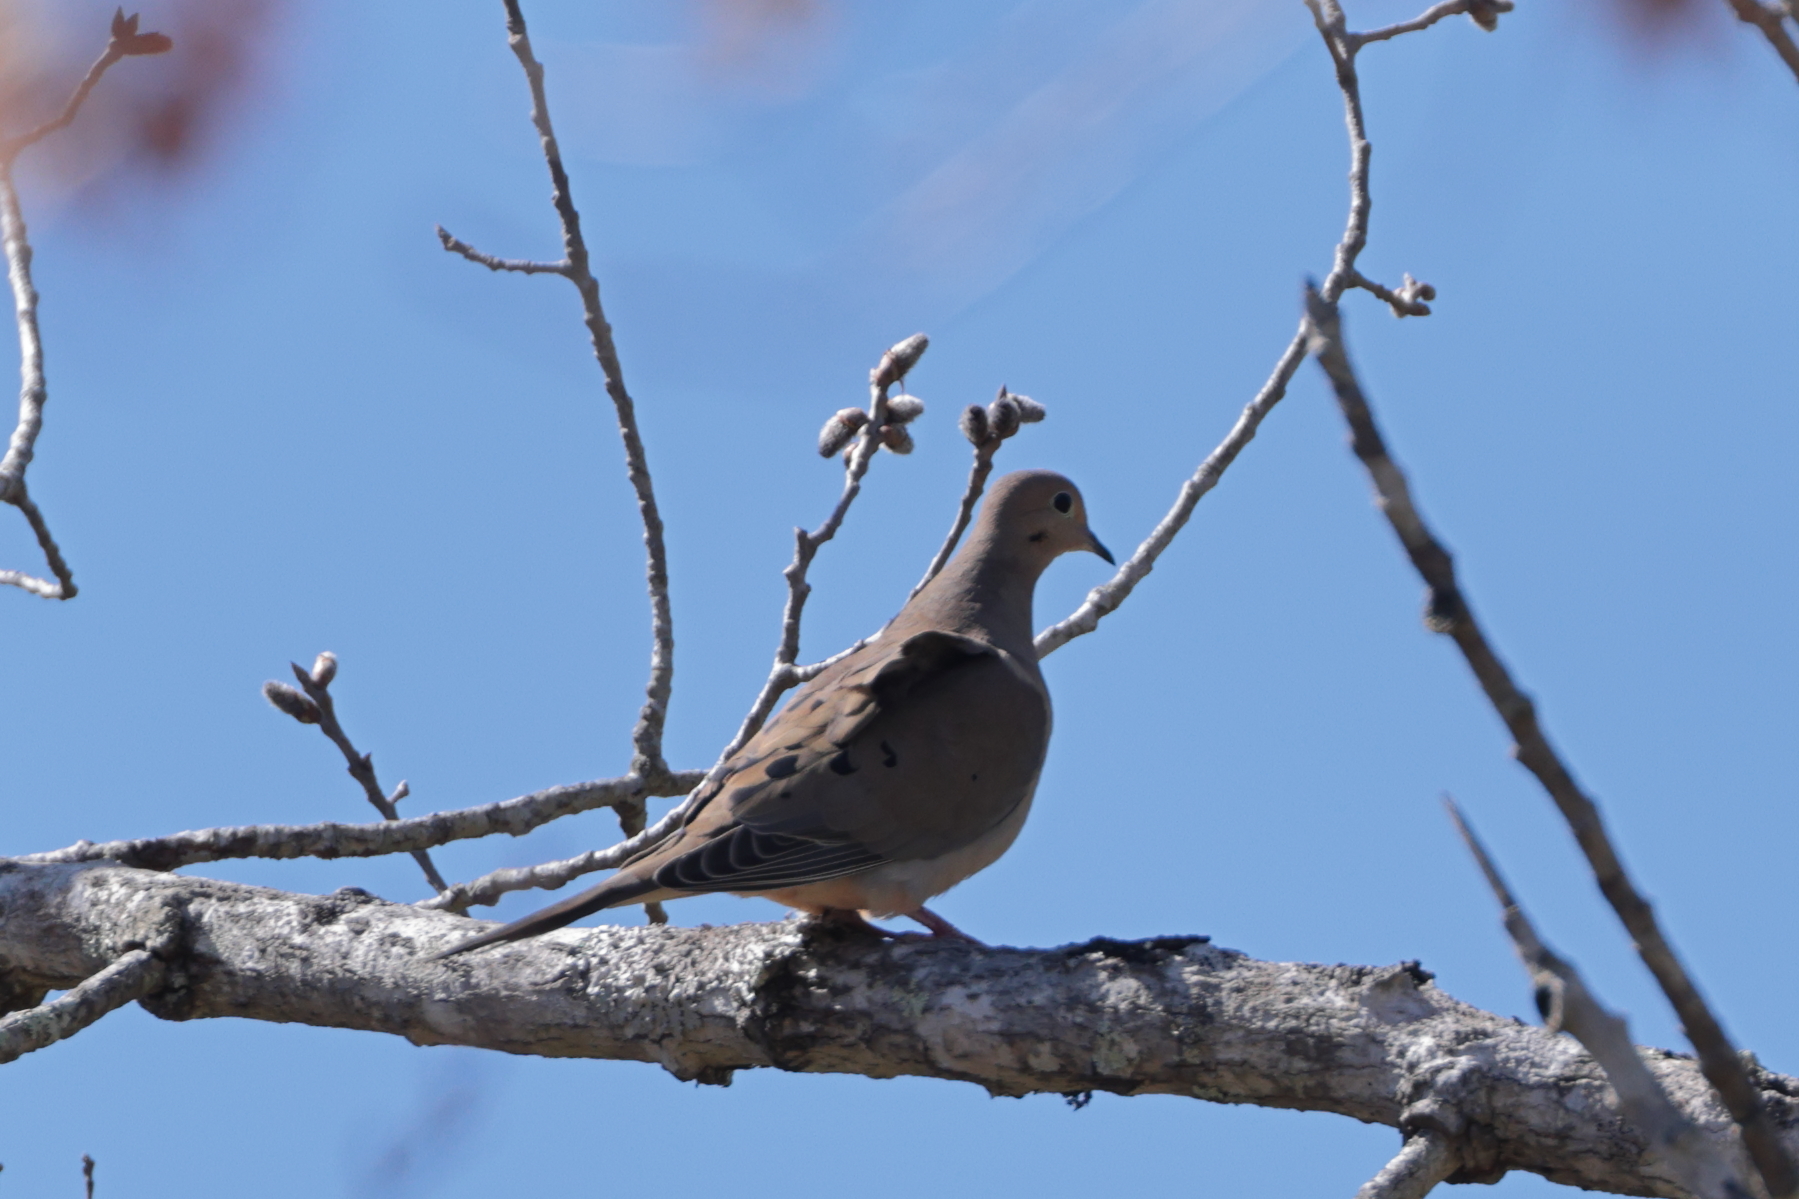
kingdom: Animalia
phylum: Chordata
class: Aves
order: Columbiformes
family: Columbidae
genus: Zenaida
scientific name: Zenaida macroura
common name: Mourning dove
